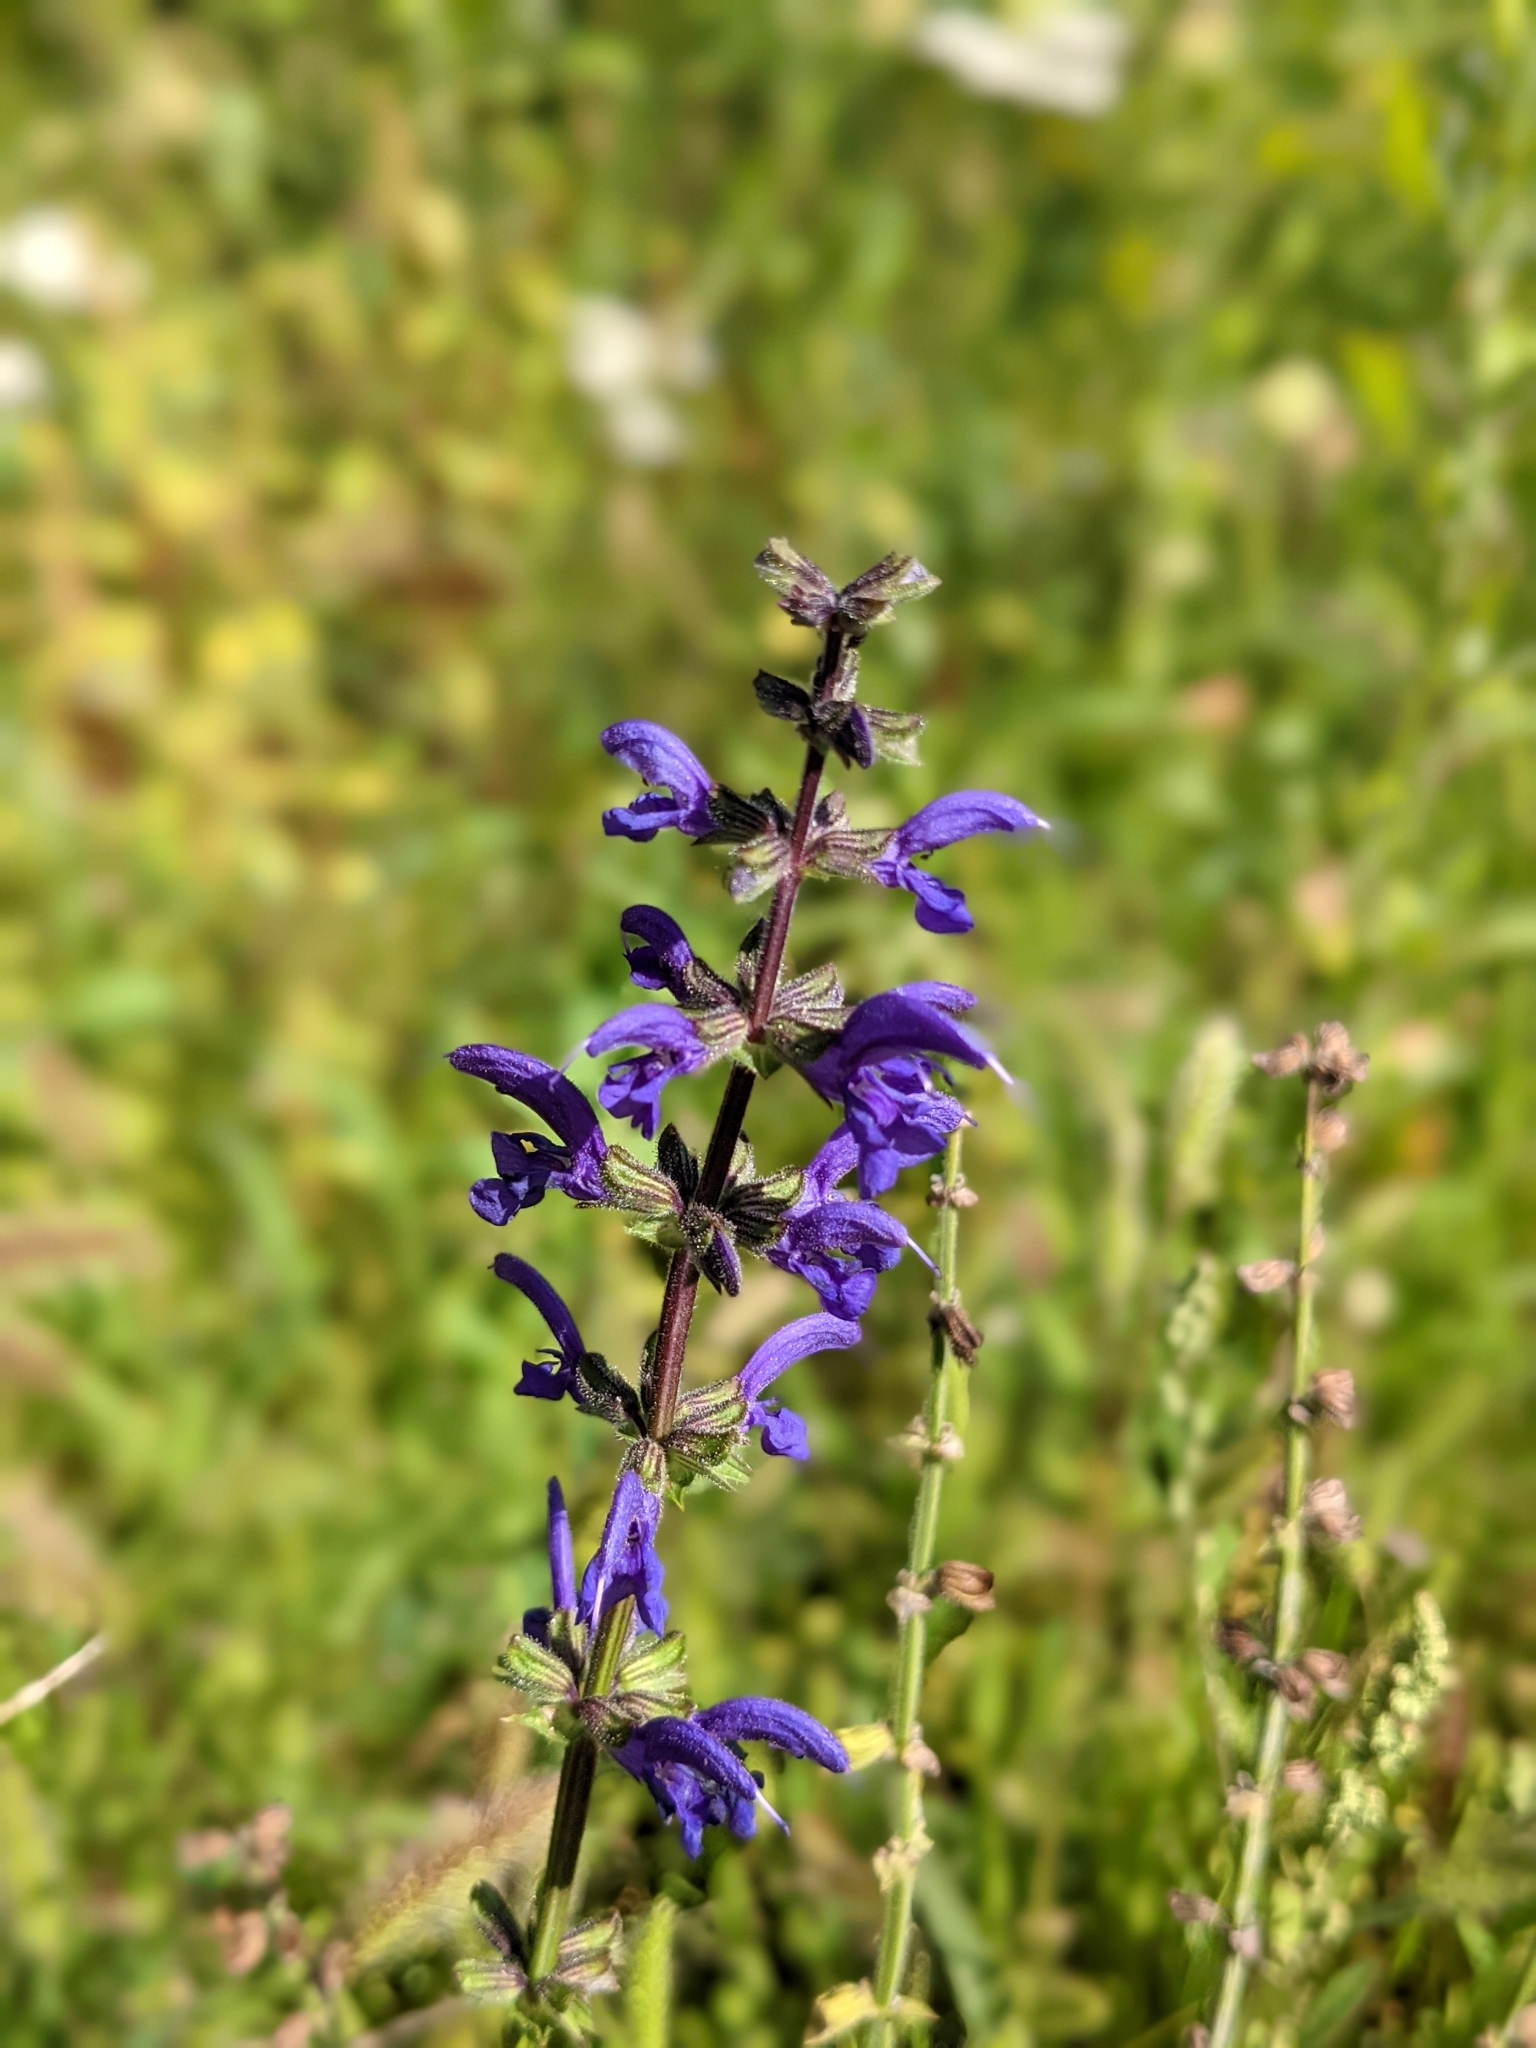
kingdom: Plantae
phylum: Tracheophyta
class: Magnoliopsida
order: Lamiales
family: Lamiaceae
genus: Salvia
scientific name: Salvia pratensis
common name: Meadow sage
